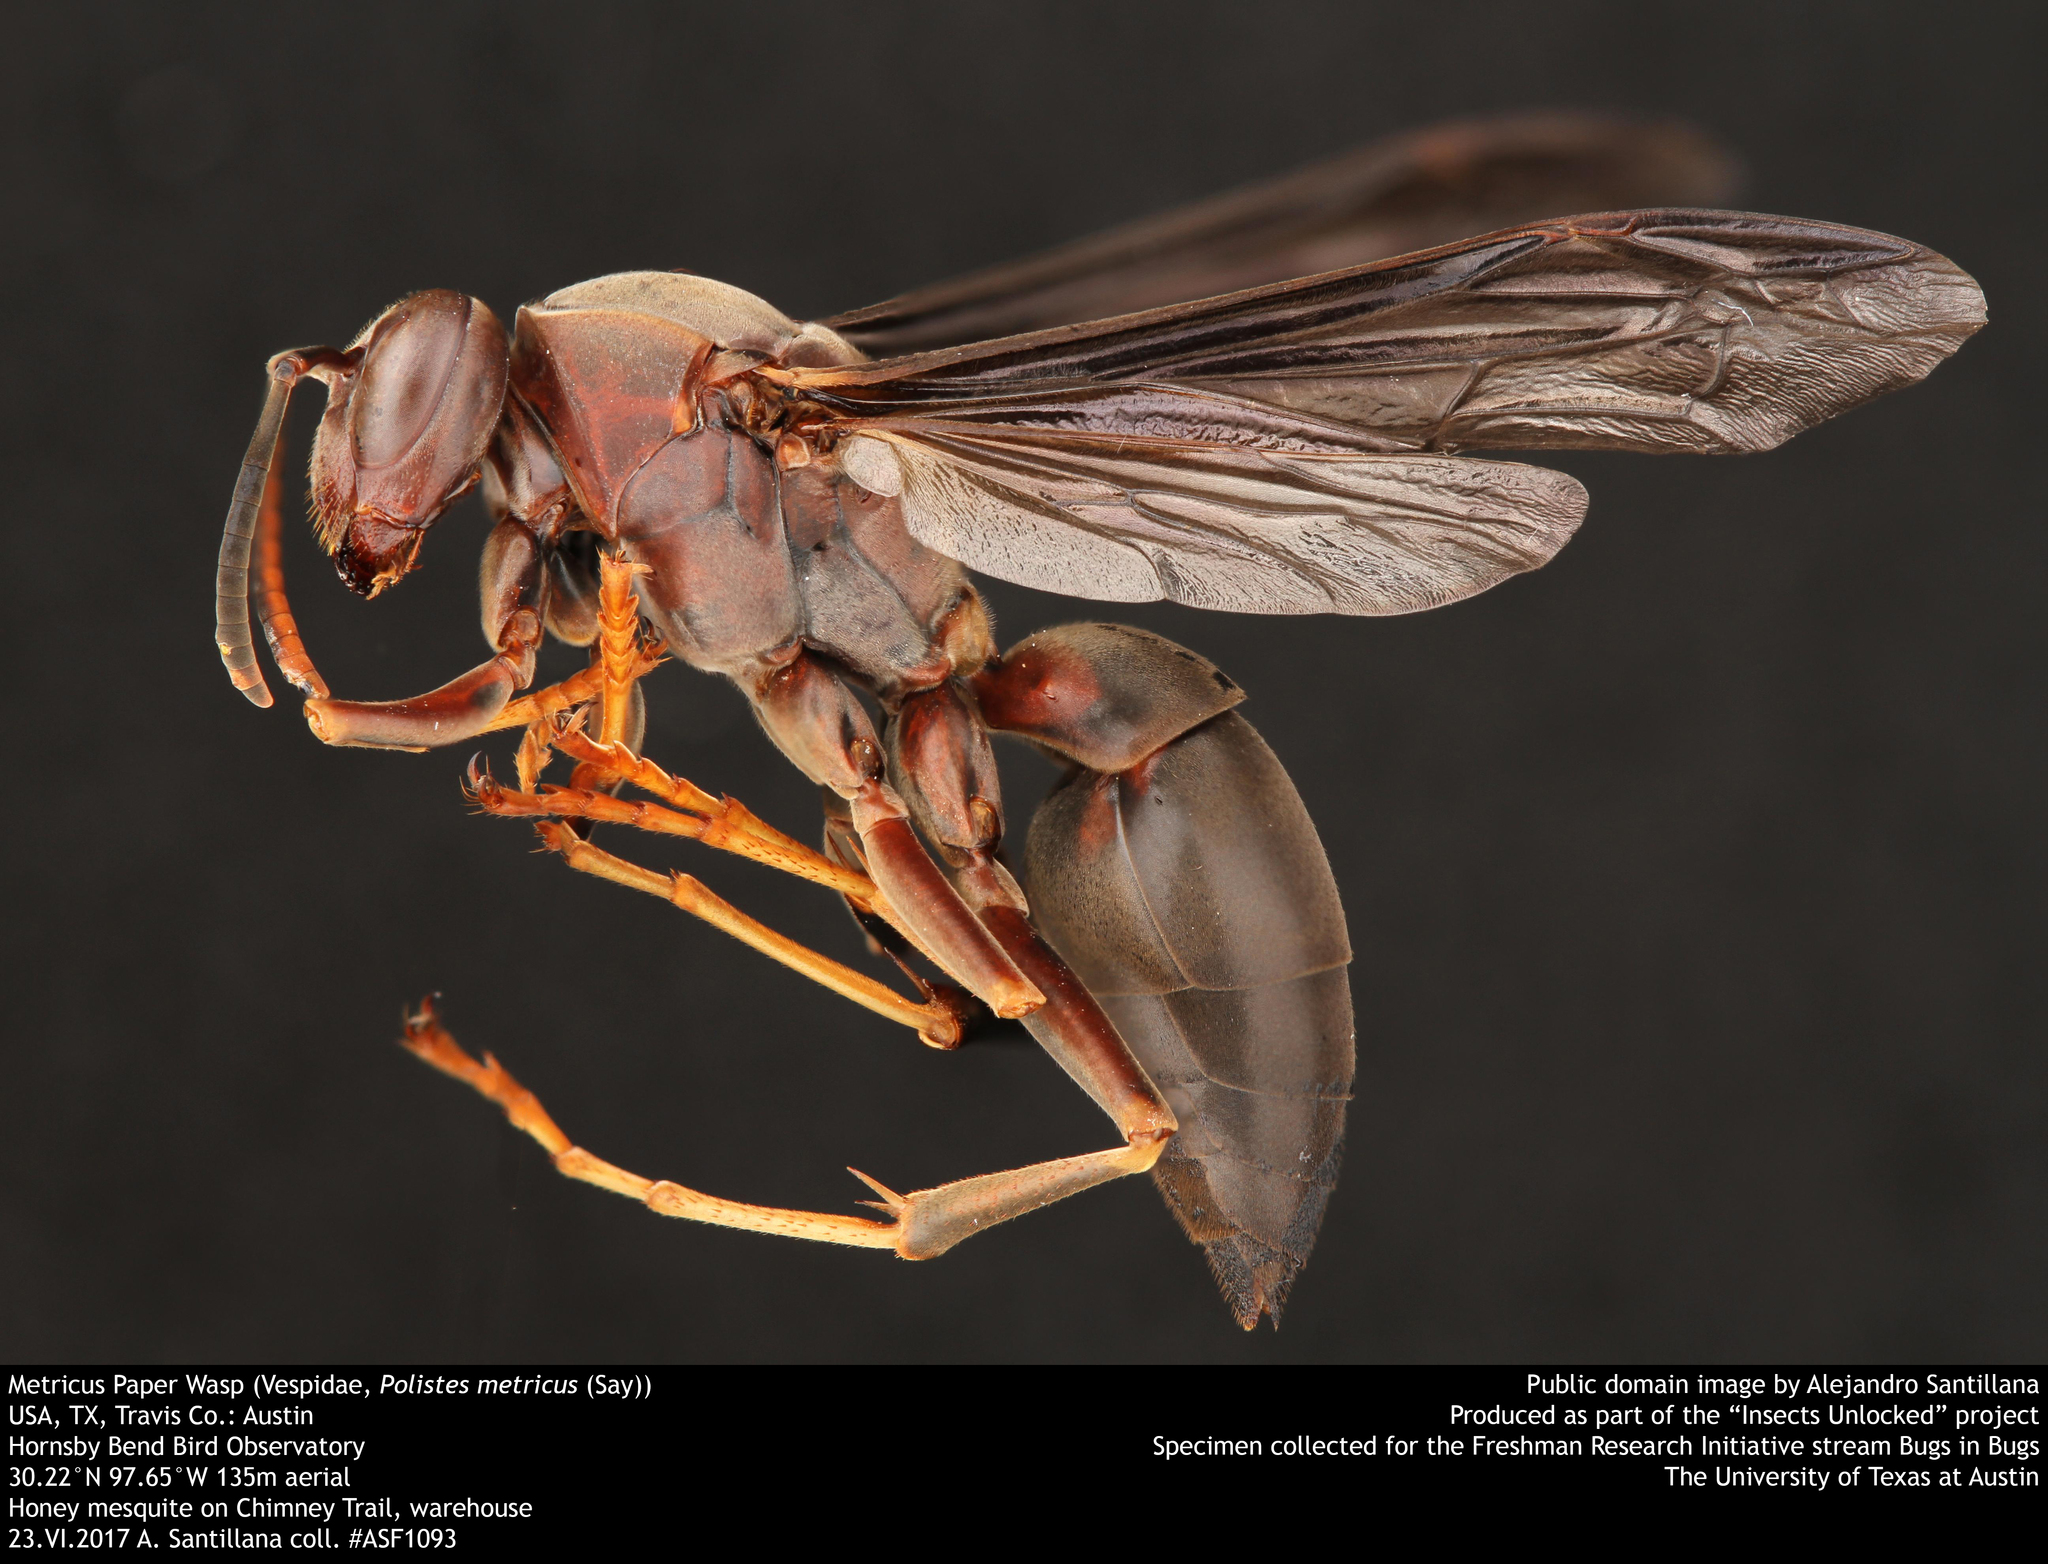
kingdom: Animalia
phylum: Arthropoda
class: Insecta
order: Hymenoptera
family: Eumenidae
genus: Polistes
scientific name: Polistes metricus
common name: Metric paper wasp
